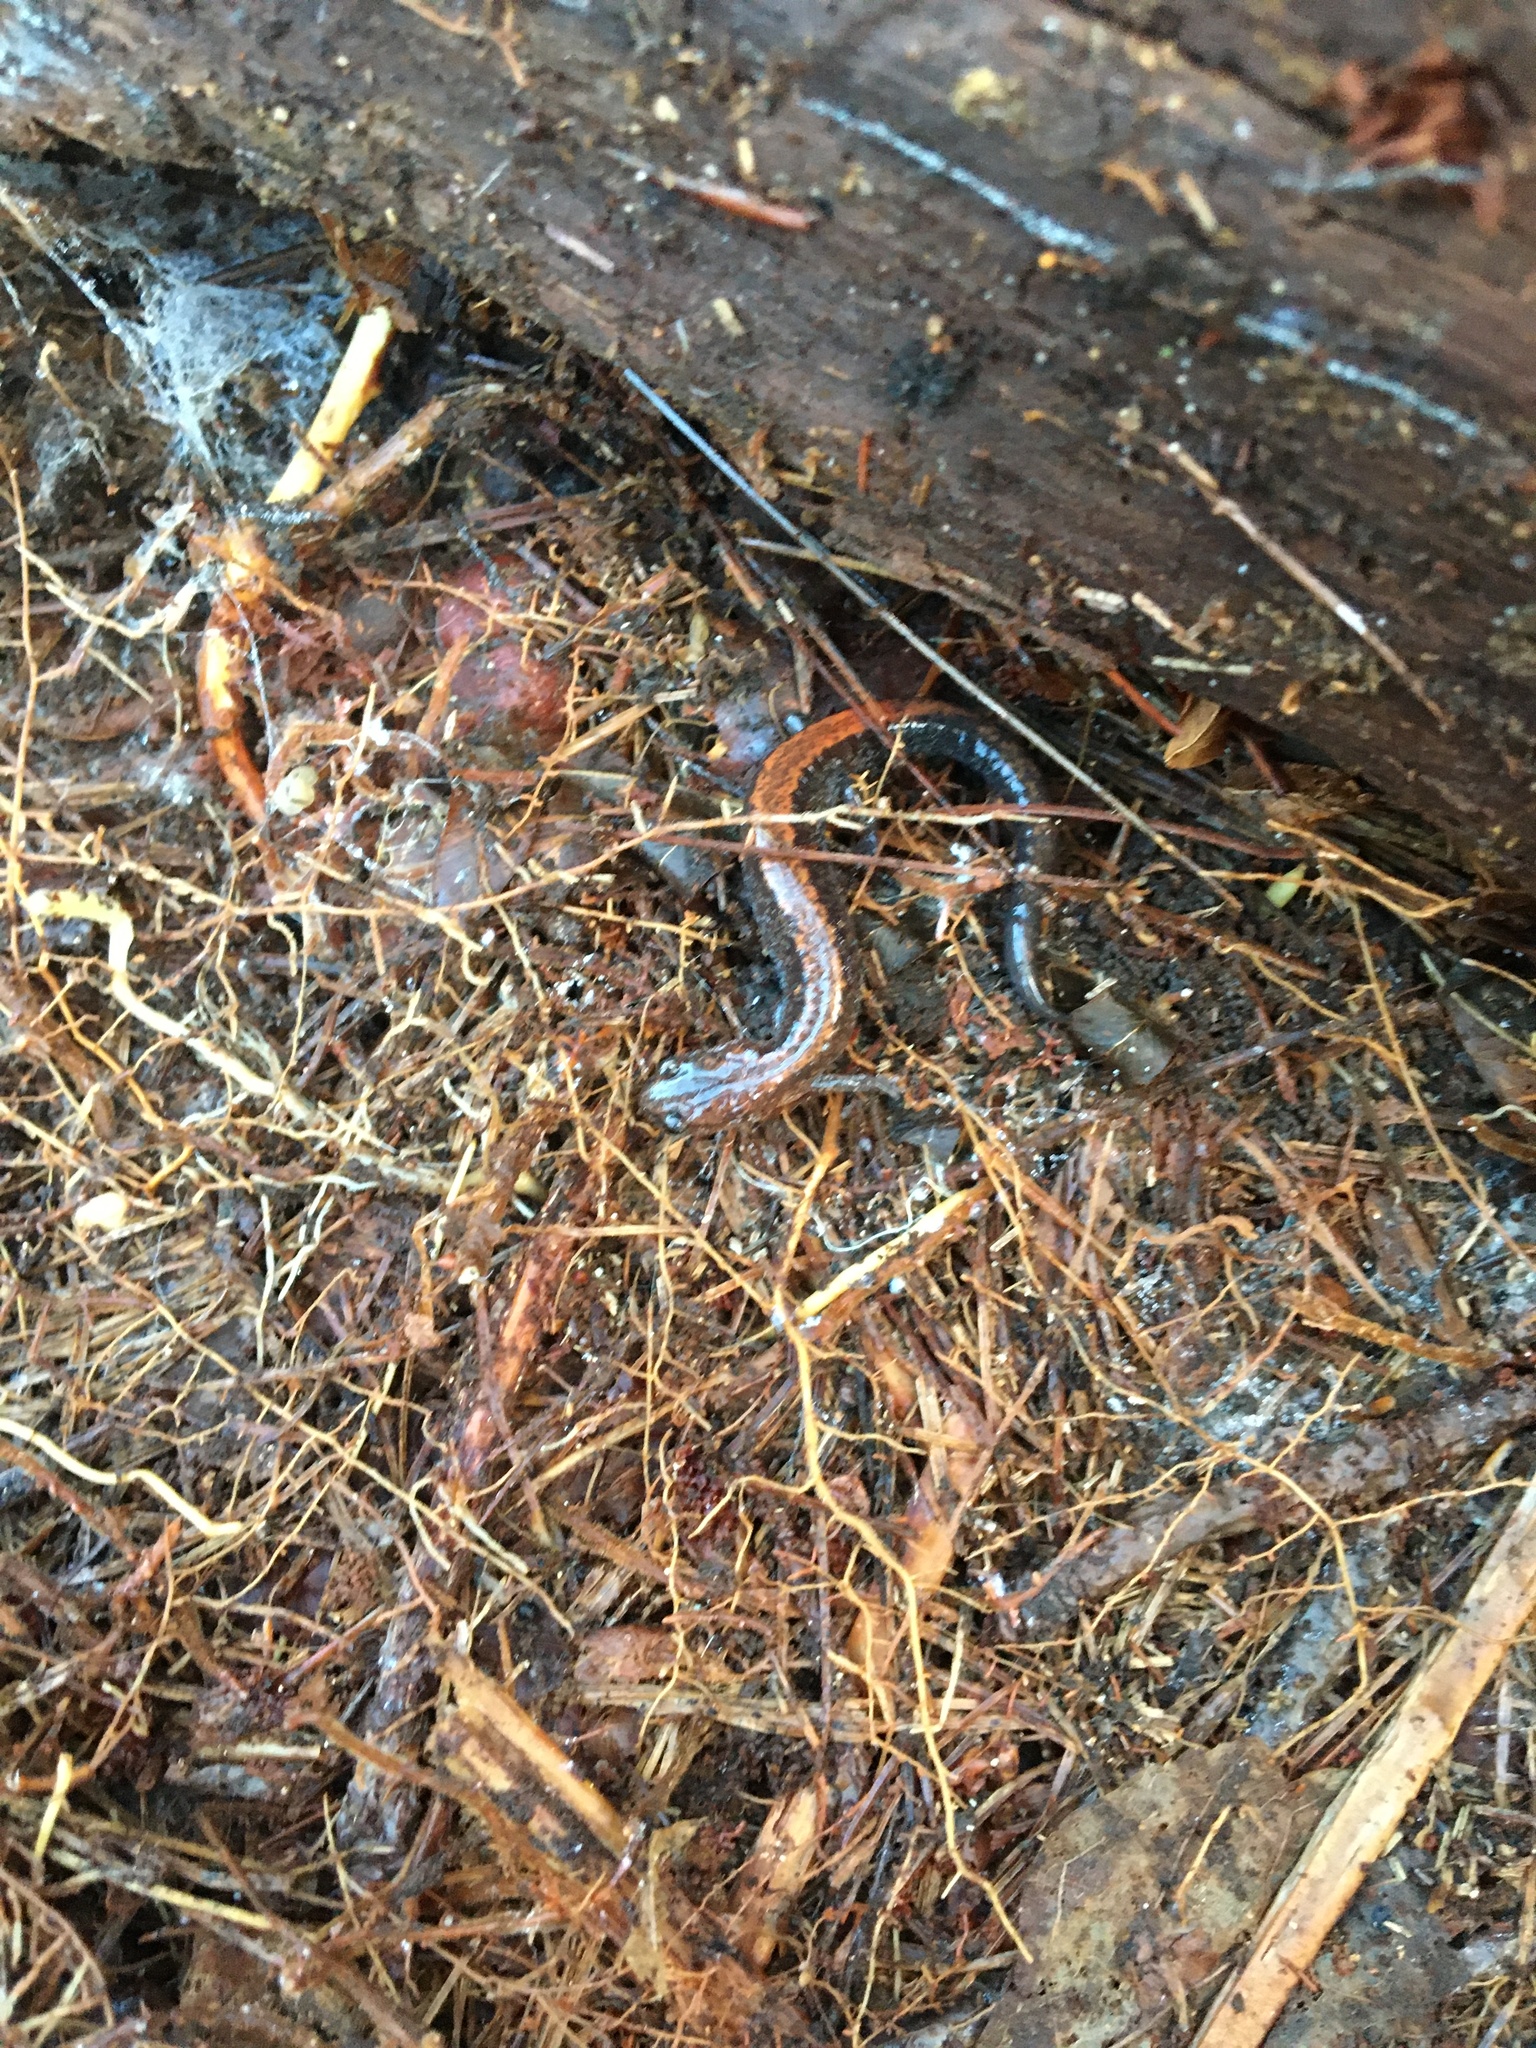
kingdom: Animalia
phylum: Chordata
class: Amphibia
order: Caudata
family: Plethodontidae
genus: Plethodon
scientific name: Plethodon cinereus
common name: Redback salamander
